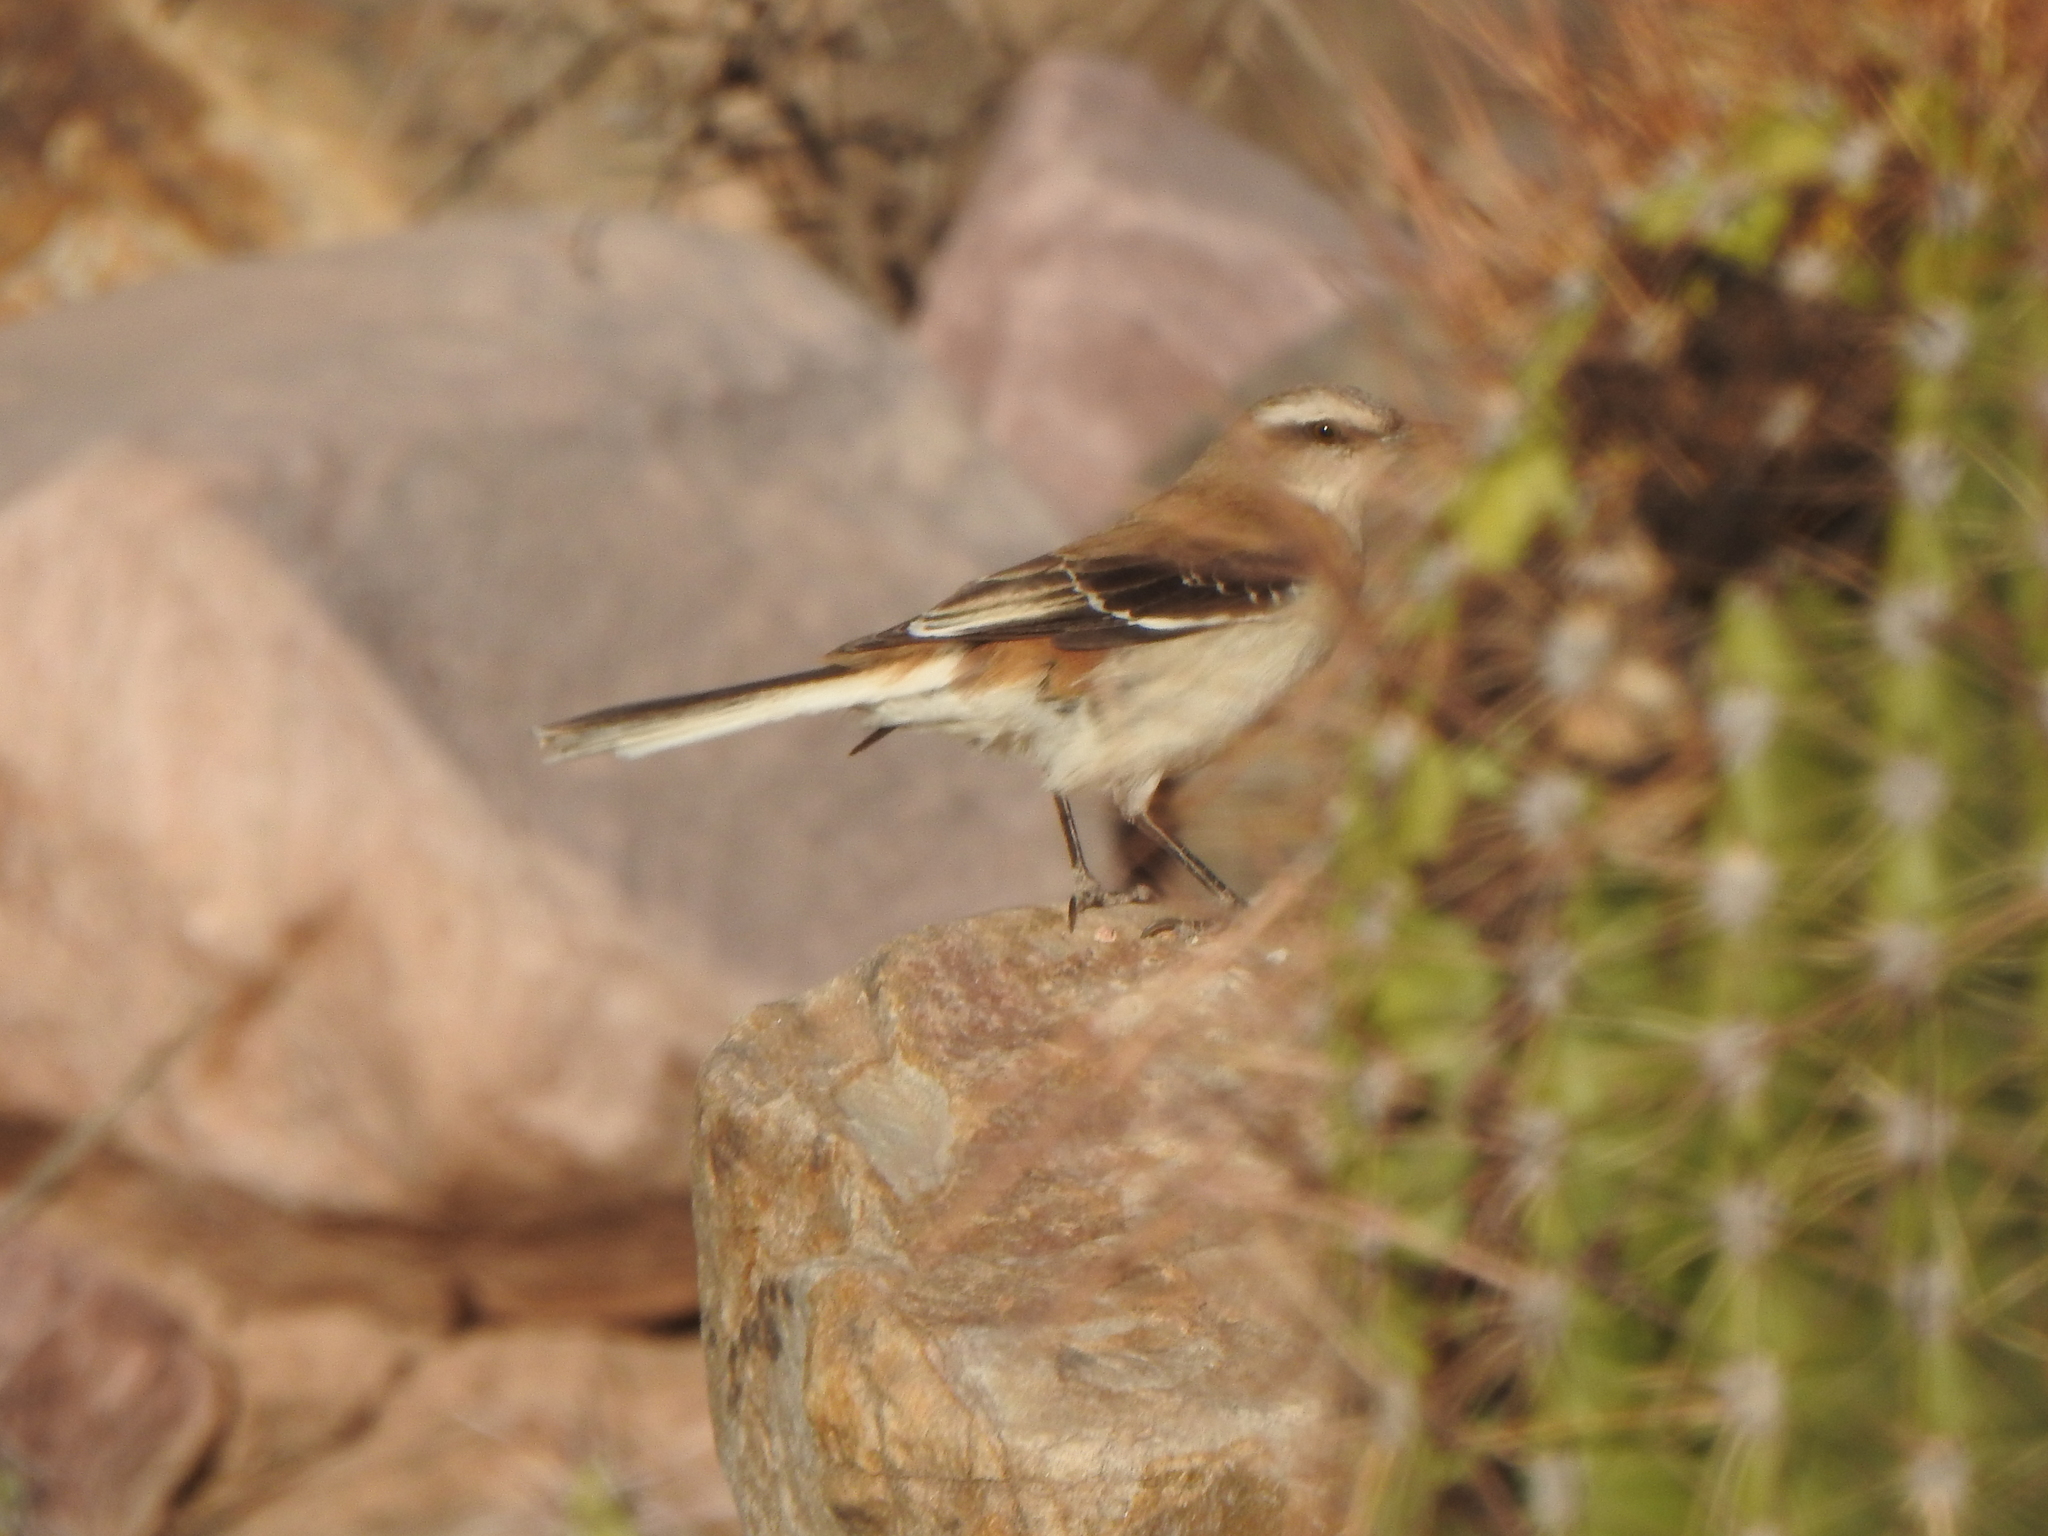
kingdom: Animalia
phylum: Chordata
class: Aves
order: Passeriformes
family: Mimidae
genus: Mimus
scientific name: Mimus dorsalis
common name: Brown-backed mockingbird
